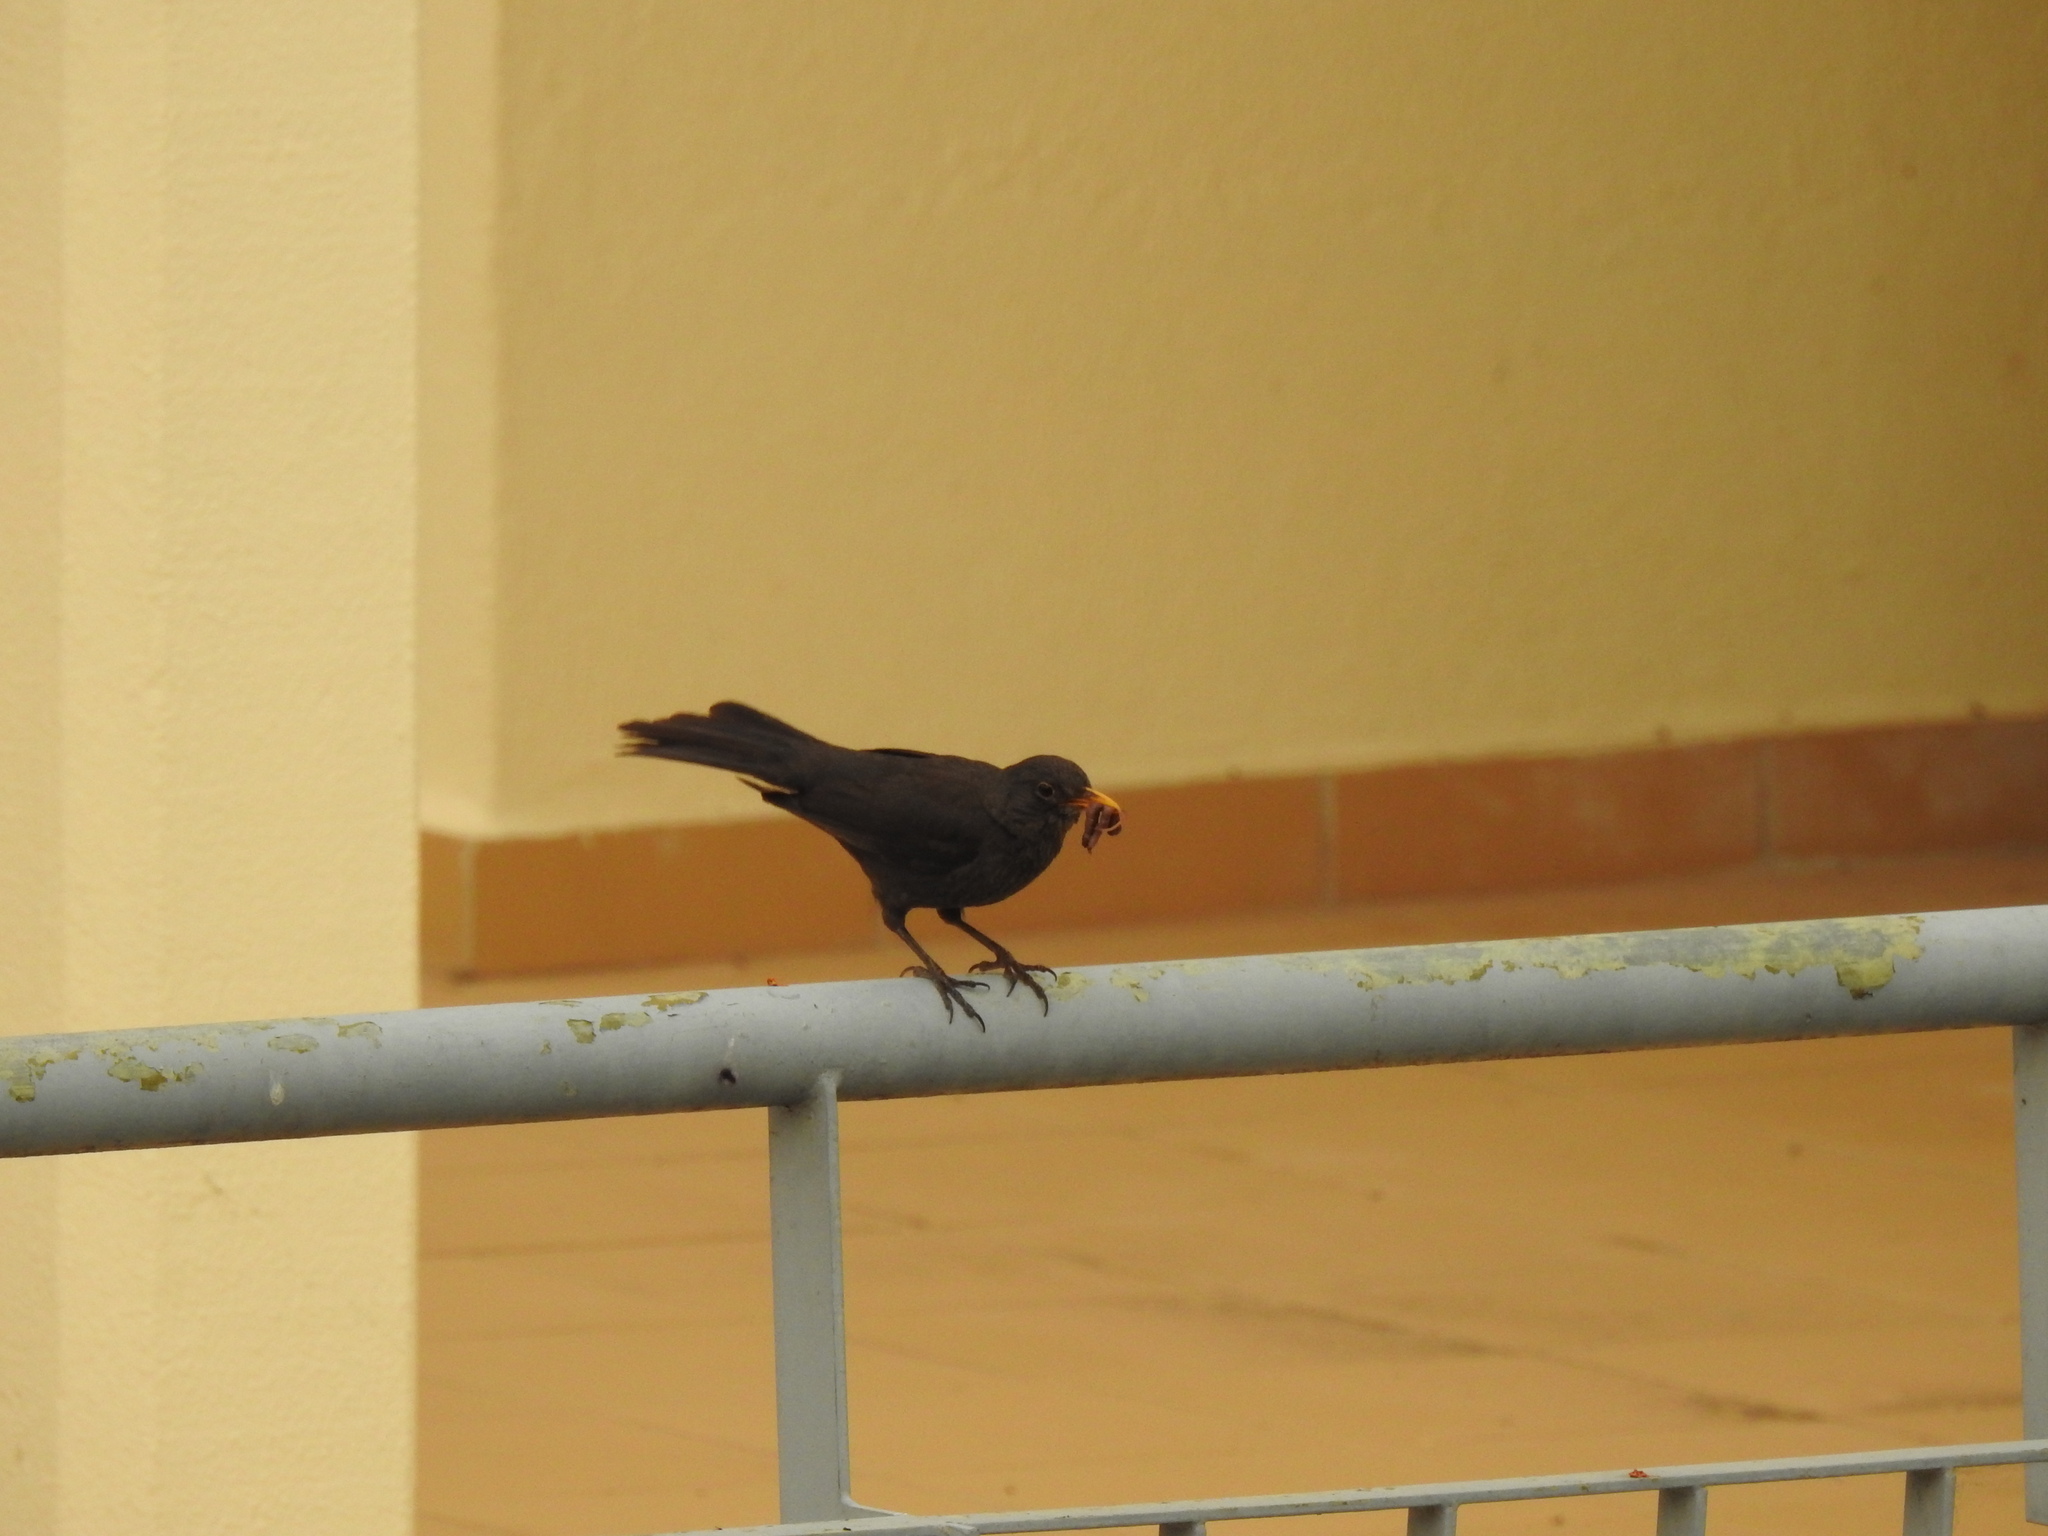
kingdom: Animalia
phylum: Chordata
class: Aves
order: Passeriformes
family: Turdidae
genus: Turdus
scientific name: Turdus merula
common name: Common blackbird
